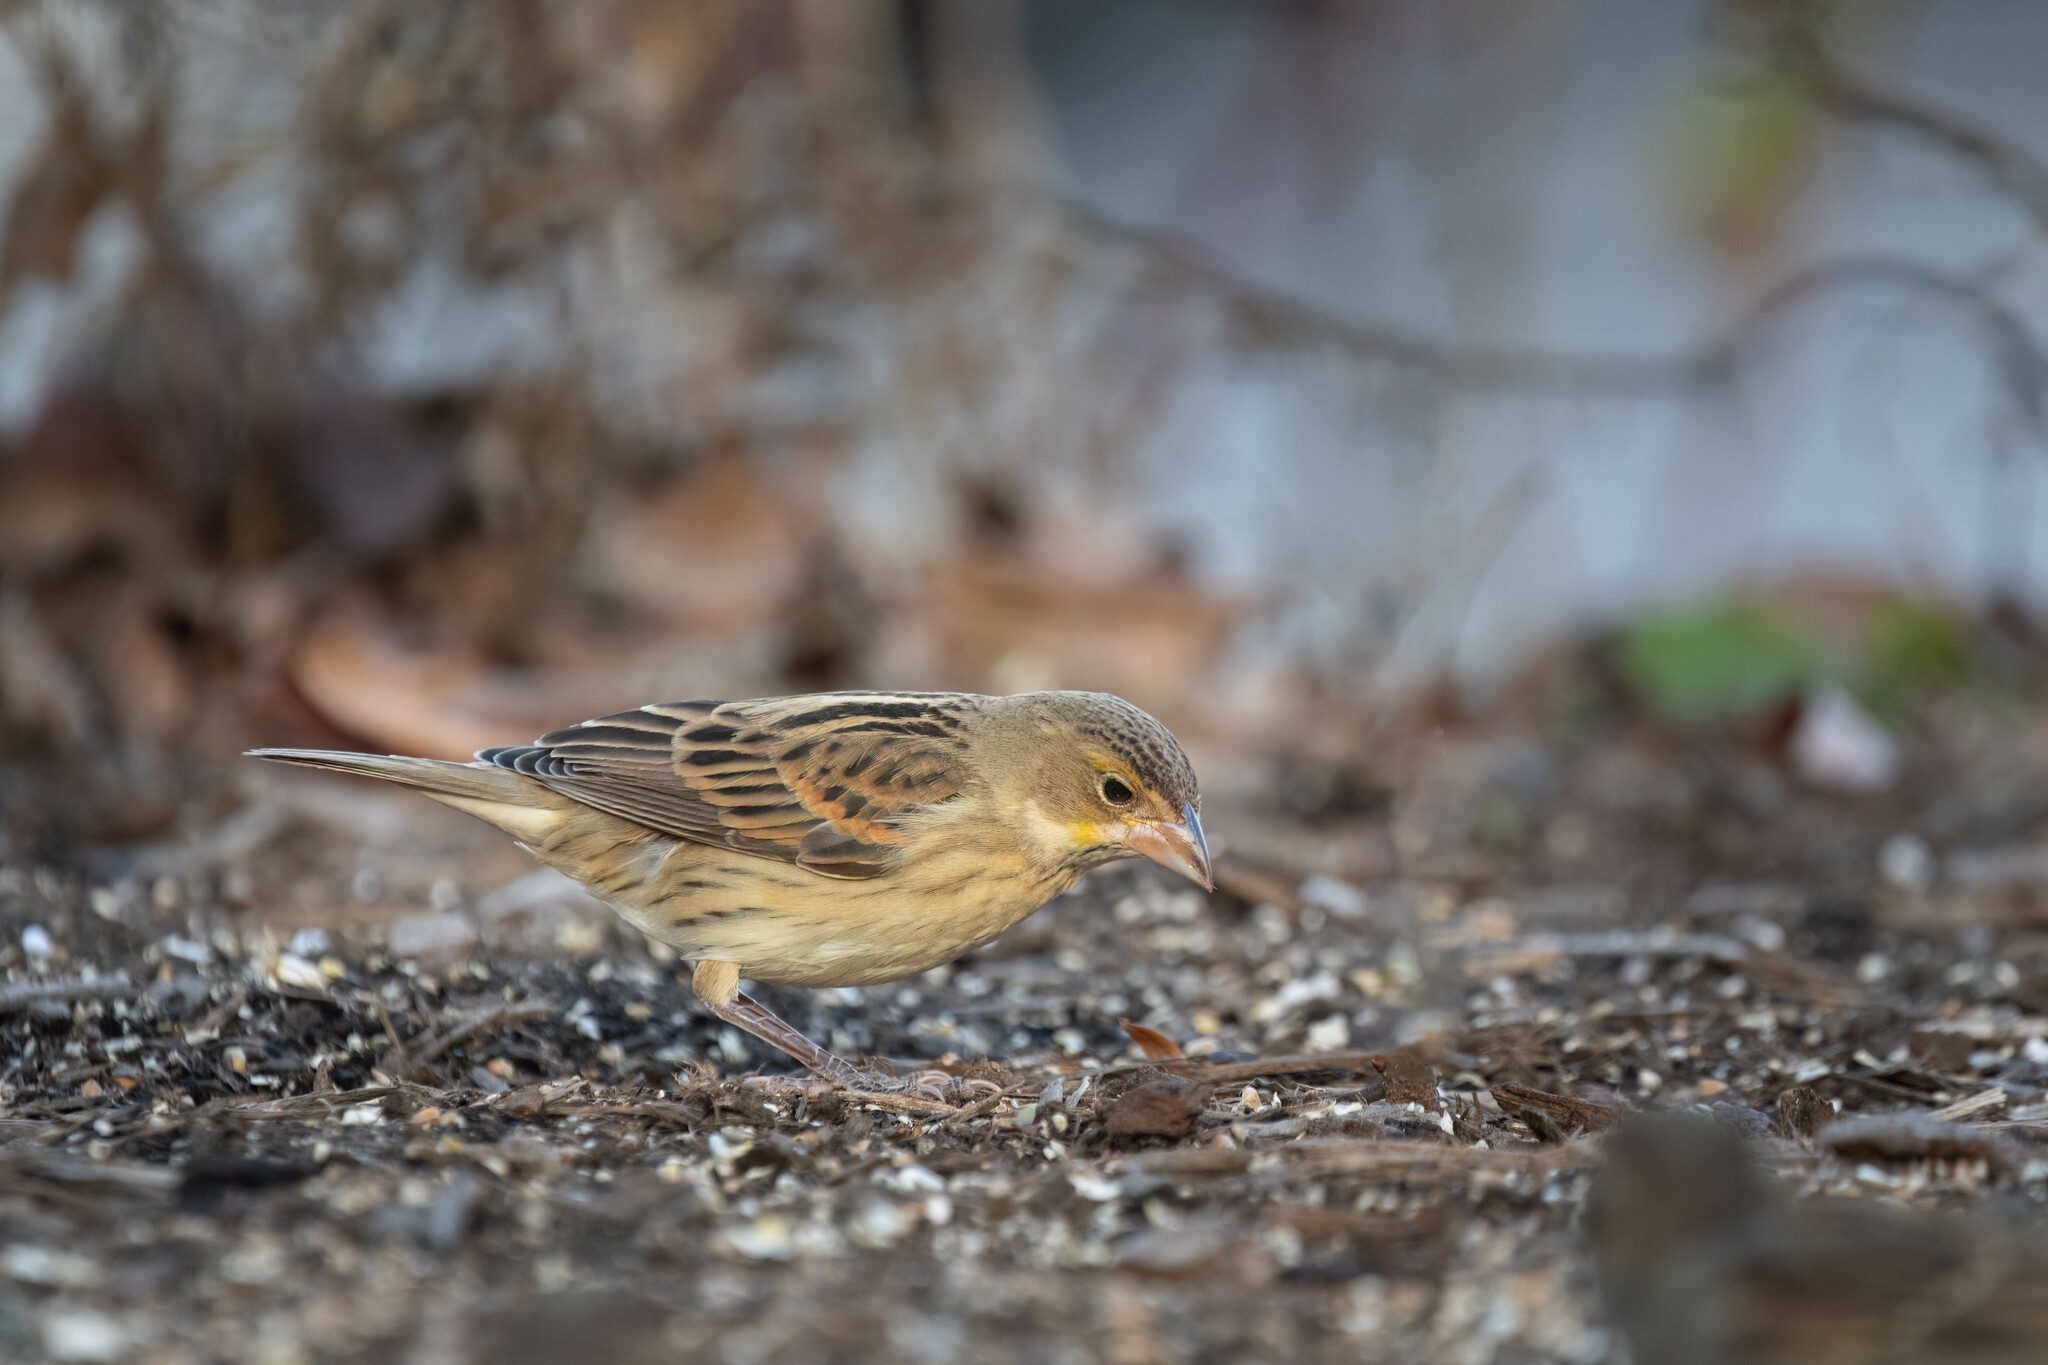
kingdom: Animalia
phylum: Chordata
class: Aves
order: Passeriformes
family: Cardinalidae
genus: Spiza
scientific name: Spiza americana
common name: Dickcissel
